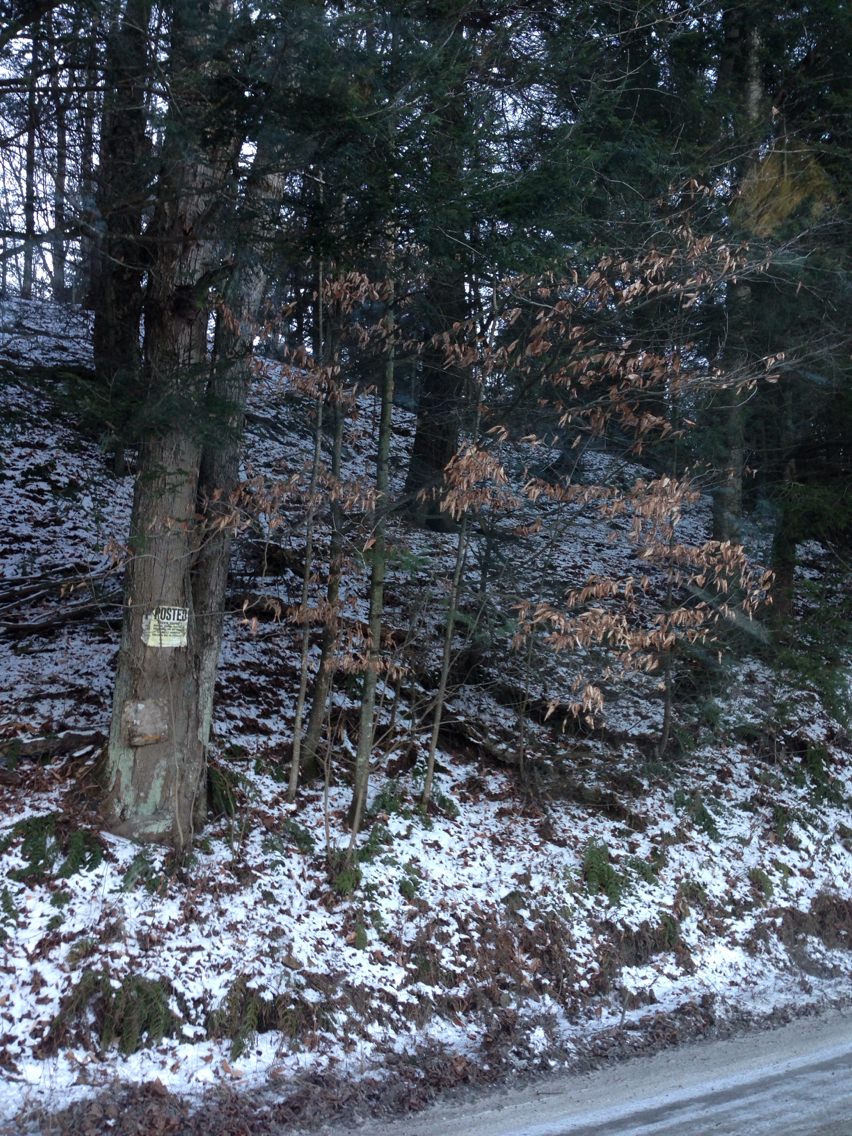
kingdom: Plantae
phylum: Tracheophyta
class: Magnoliopsida
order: Fagales
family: Fagaceae
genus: Fagus
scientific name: Fagus grandifolia
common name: American beech
